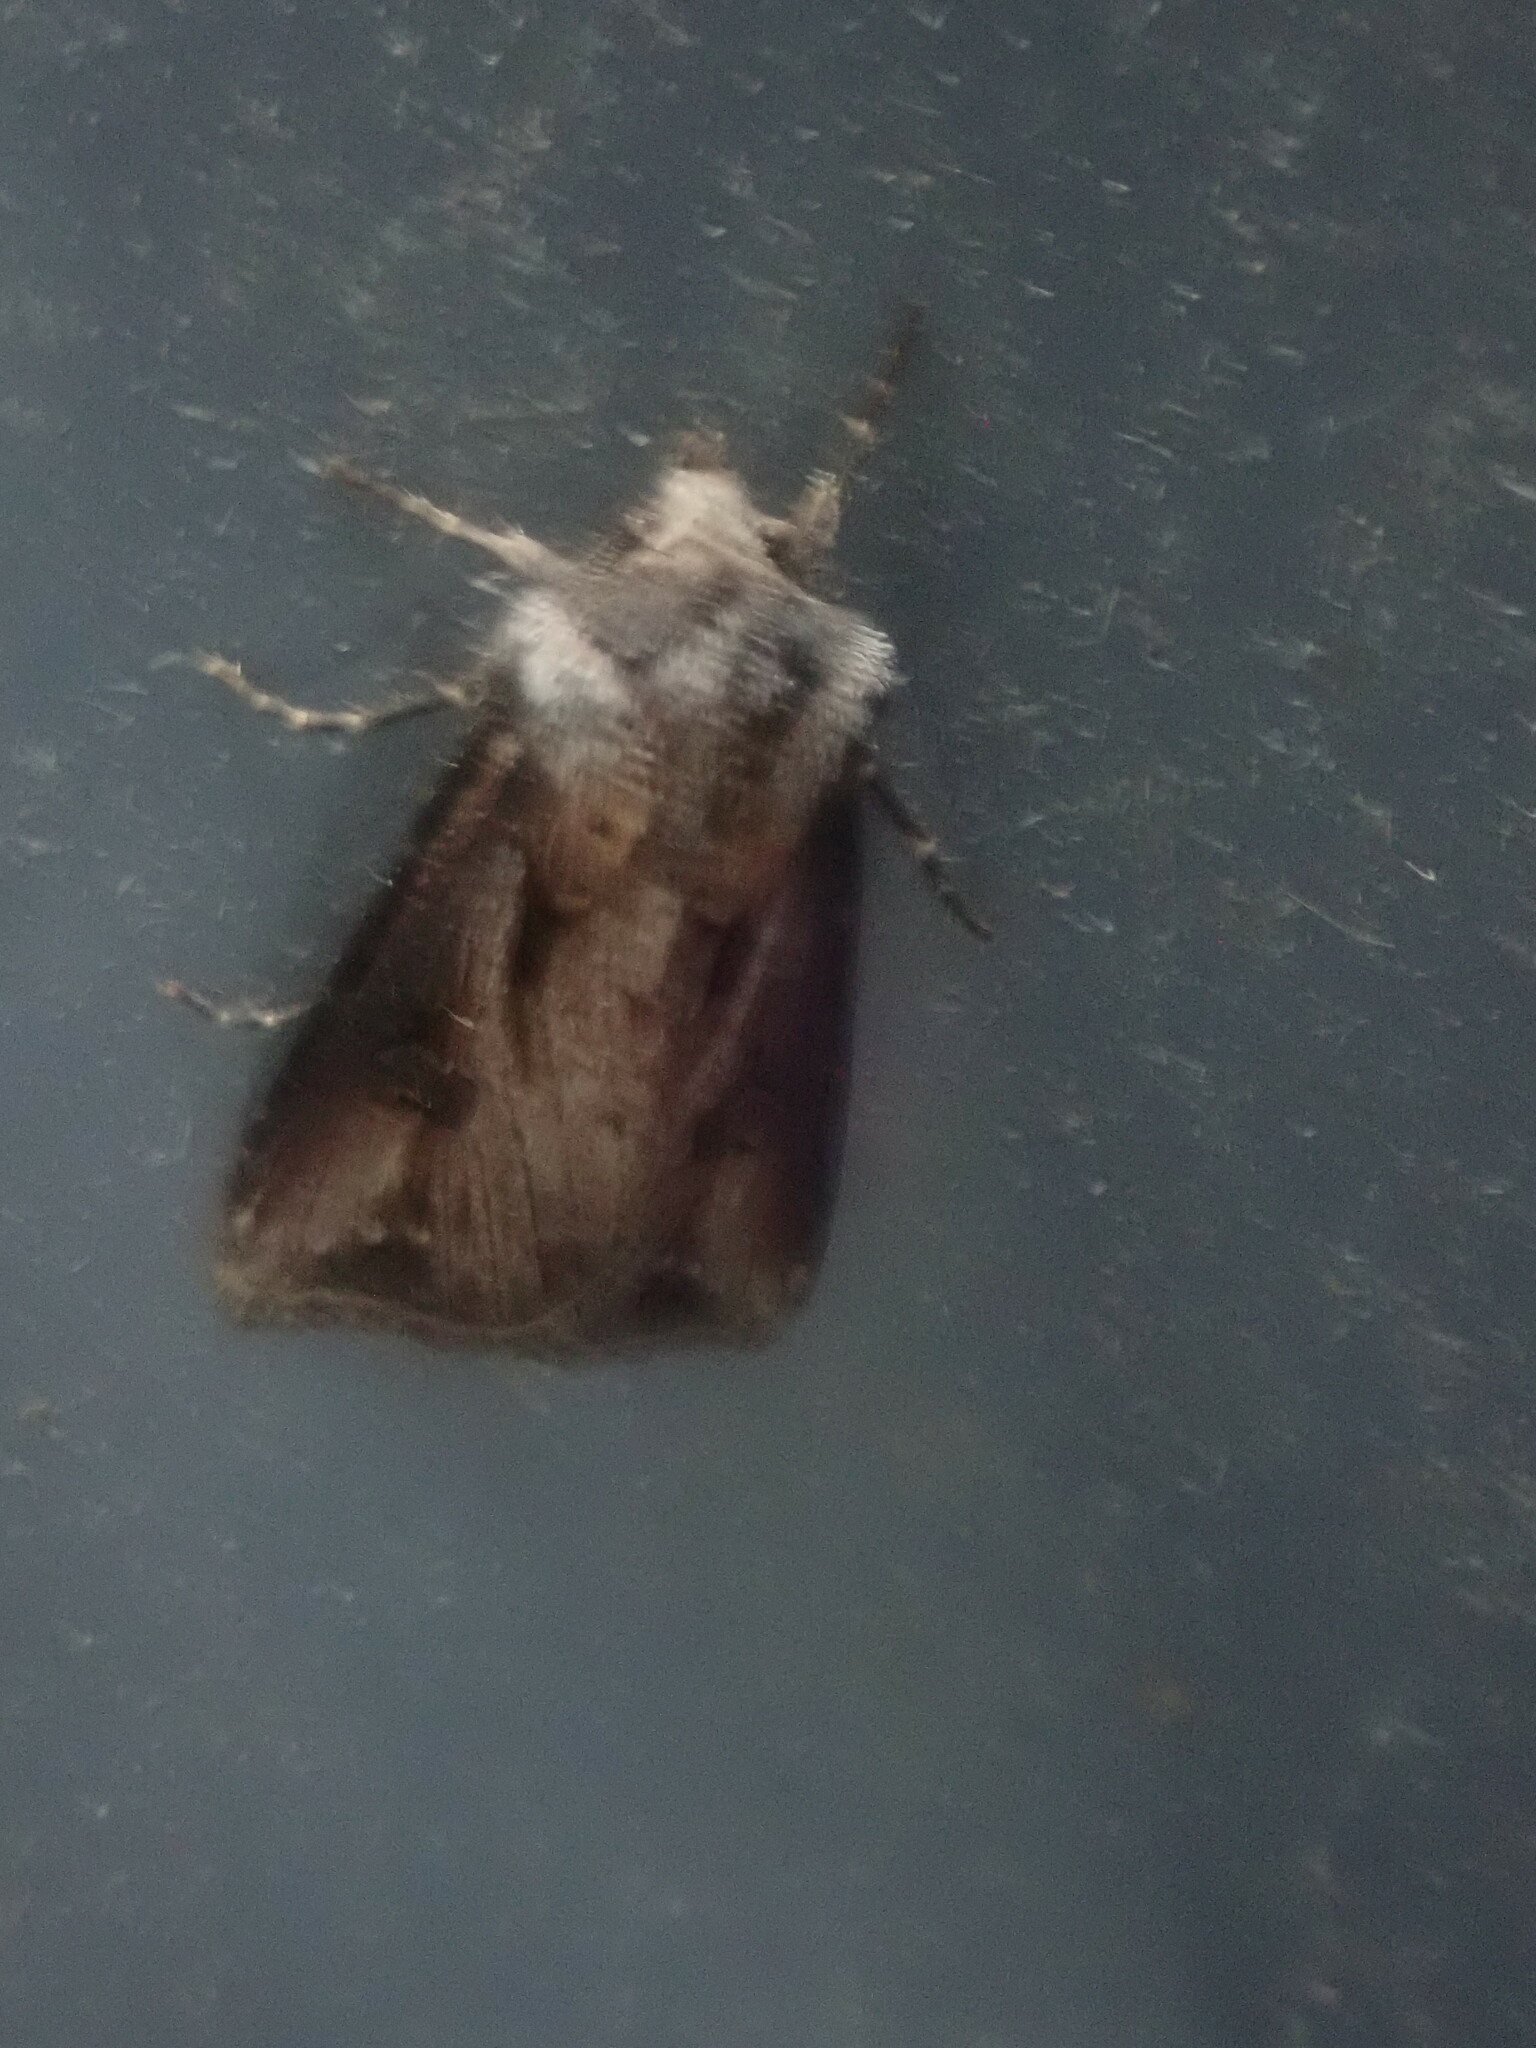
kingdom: Animalia
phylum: Arthropoda
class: Insecta
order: Lepidoptera
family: Noctuidae
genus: Agrotis
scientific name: Agrotis venerabilis
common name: Venerable dart
